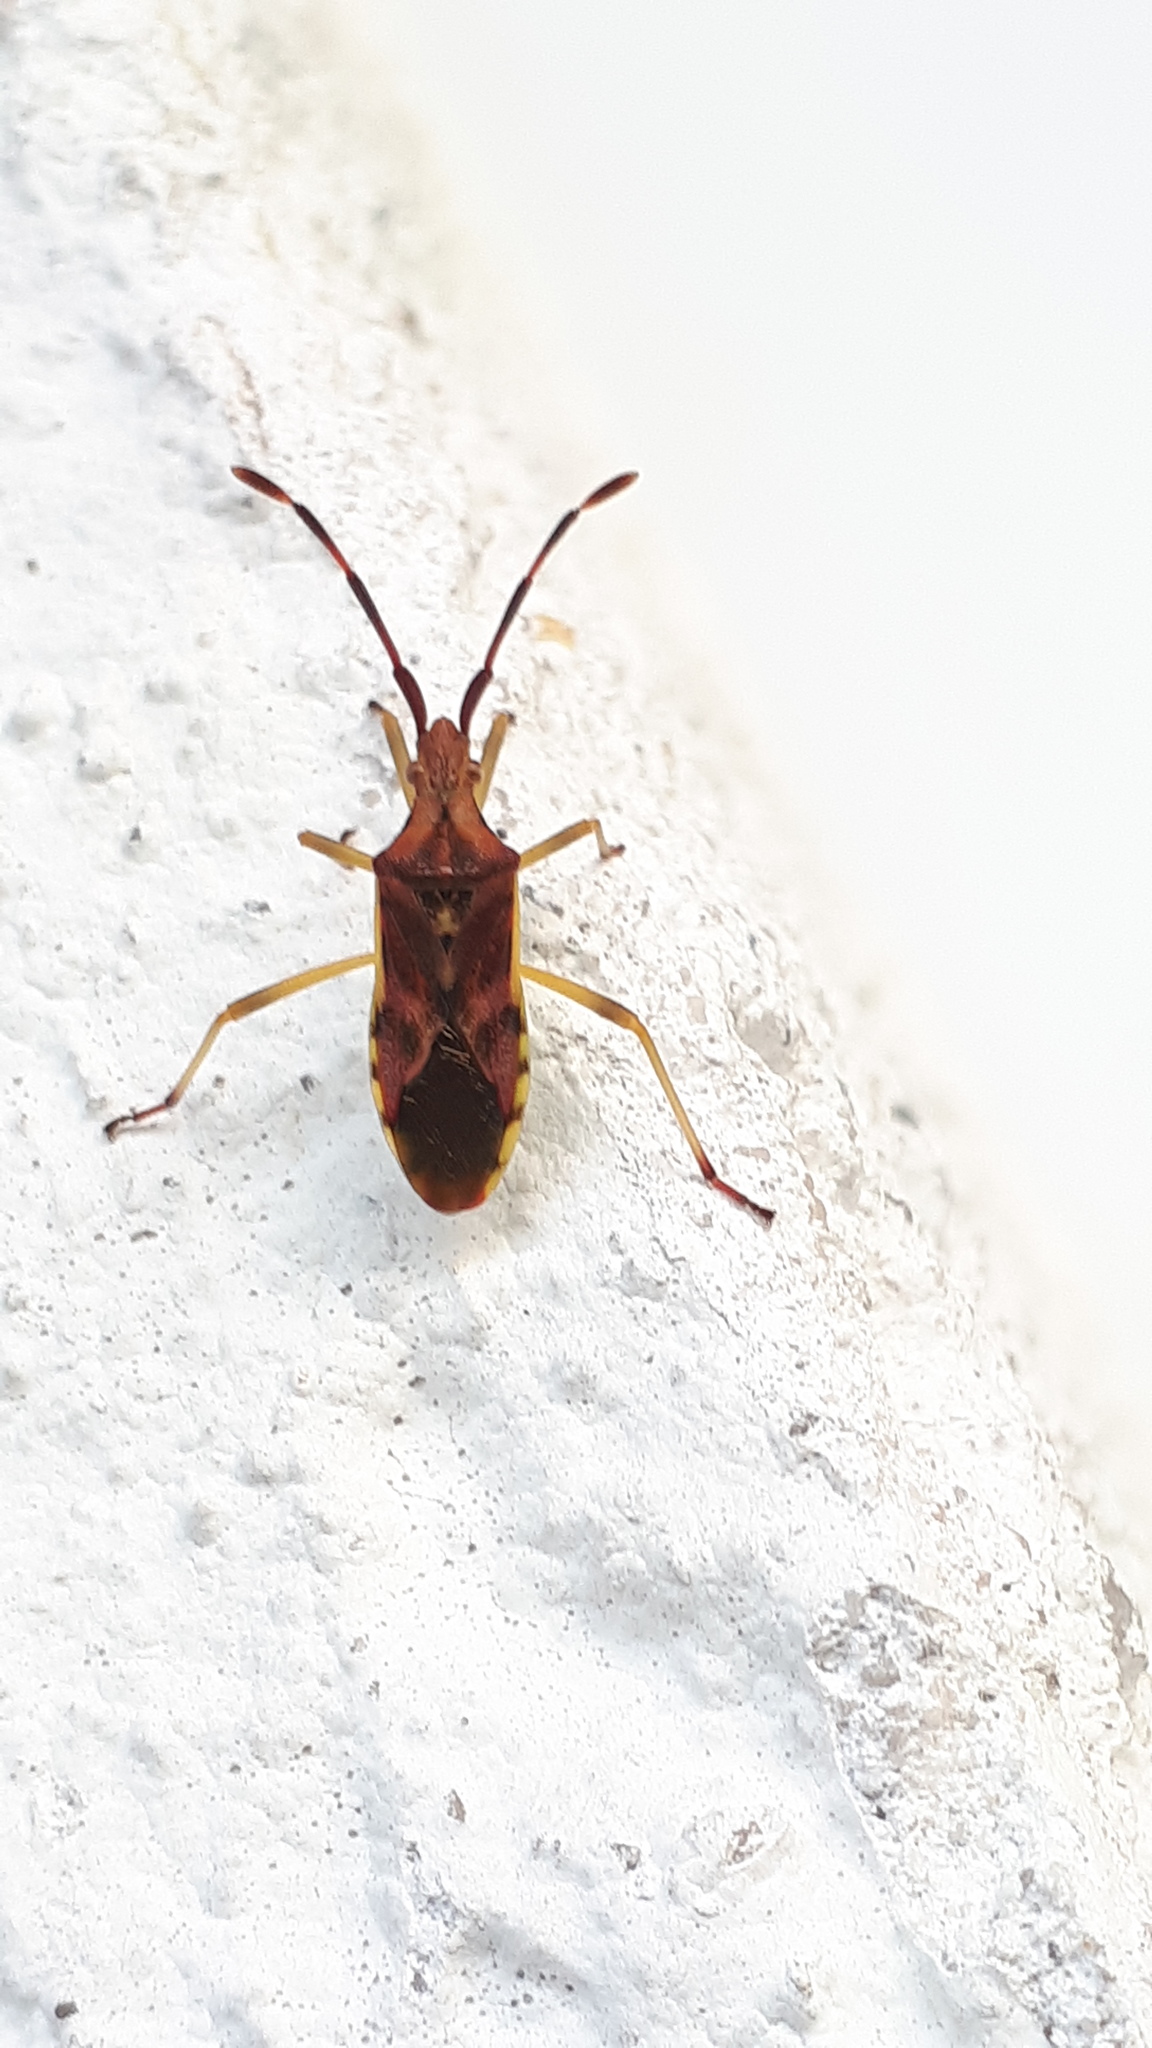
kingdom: Animalia
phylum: Arthropoda
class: Insecta
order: Hemiptera
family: Coreidae
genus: Gonocerus
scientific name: Gonocerus juniperi
